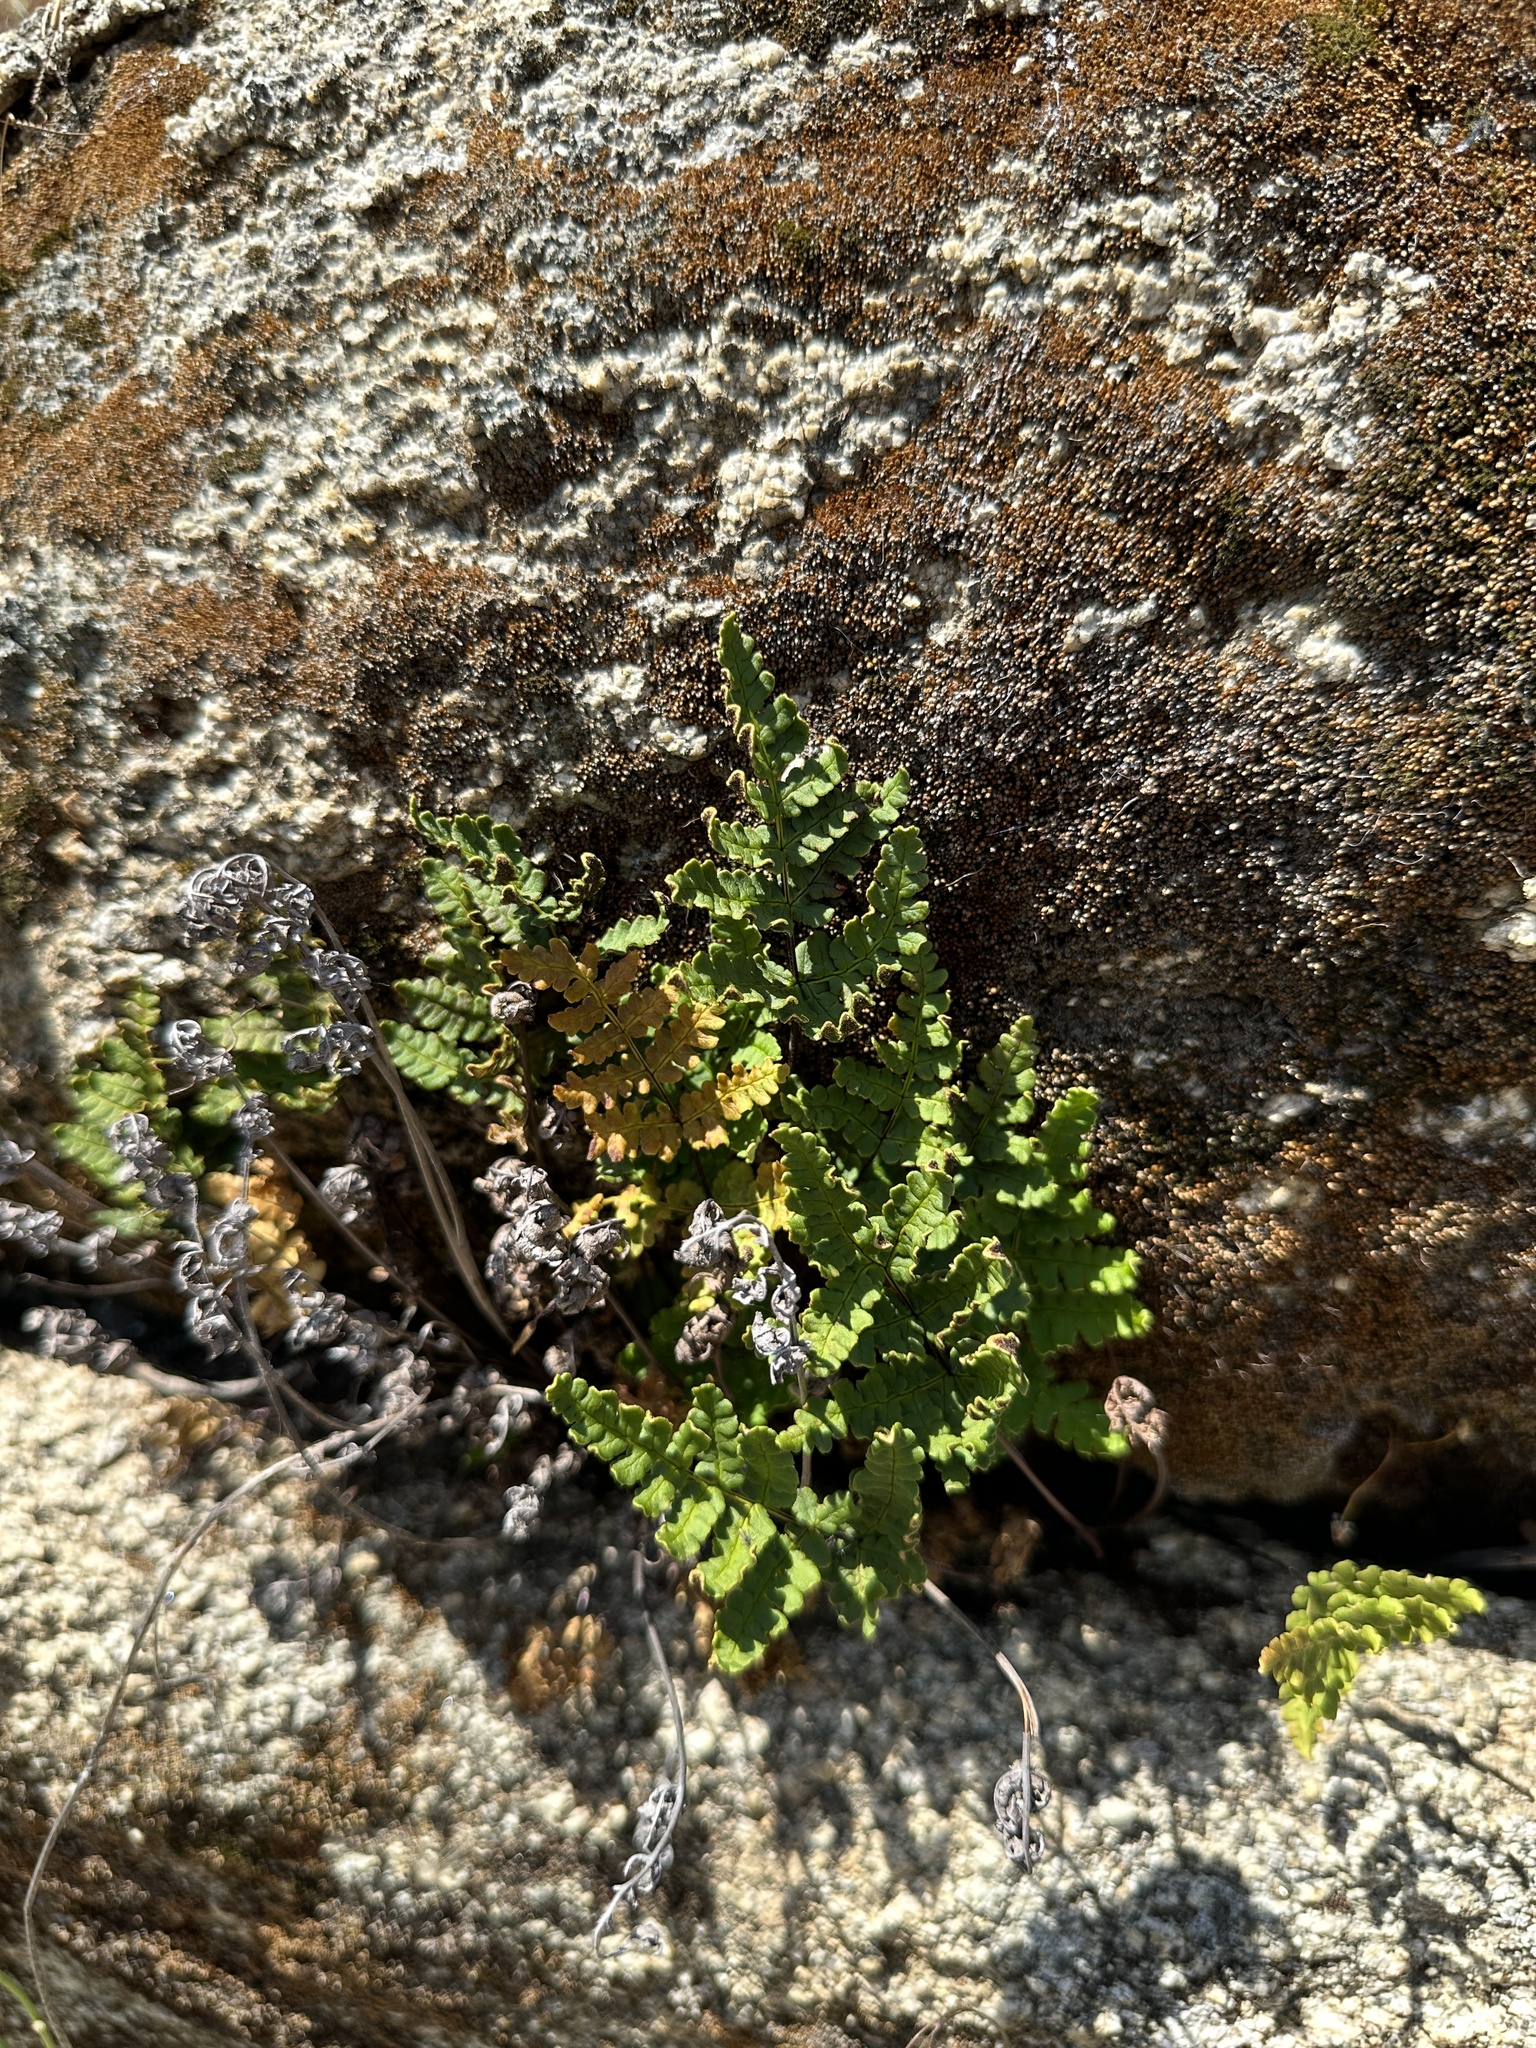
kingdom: Plantae
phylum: Tracheophyta
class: Polypodiopsida
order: Polypodiales
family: Pteridaceae
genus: Pentagramma
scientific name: Pentagramma triangularis
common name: Gold fern
